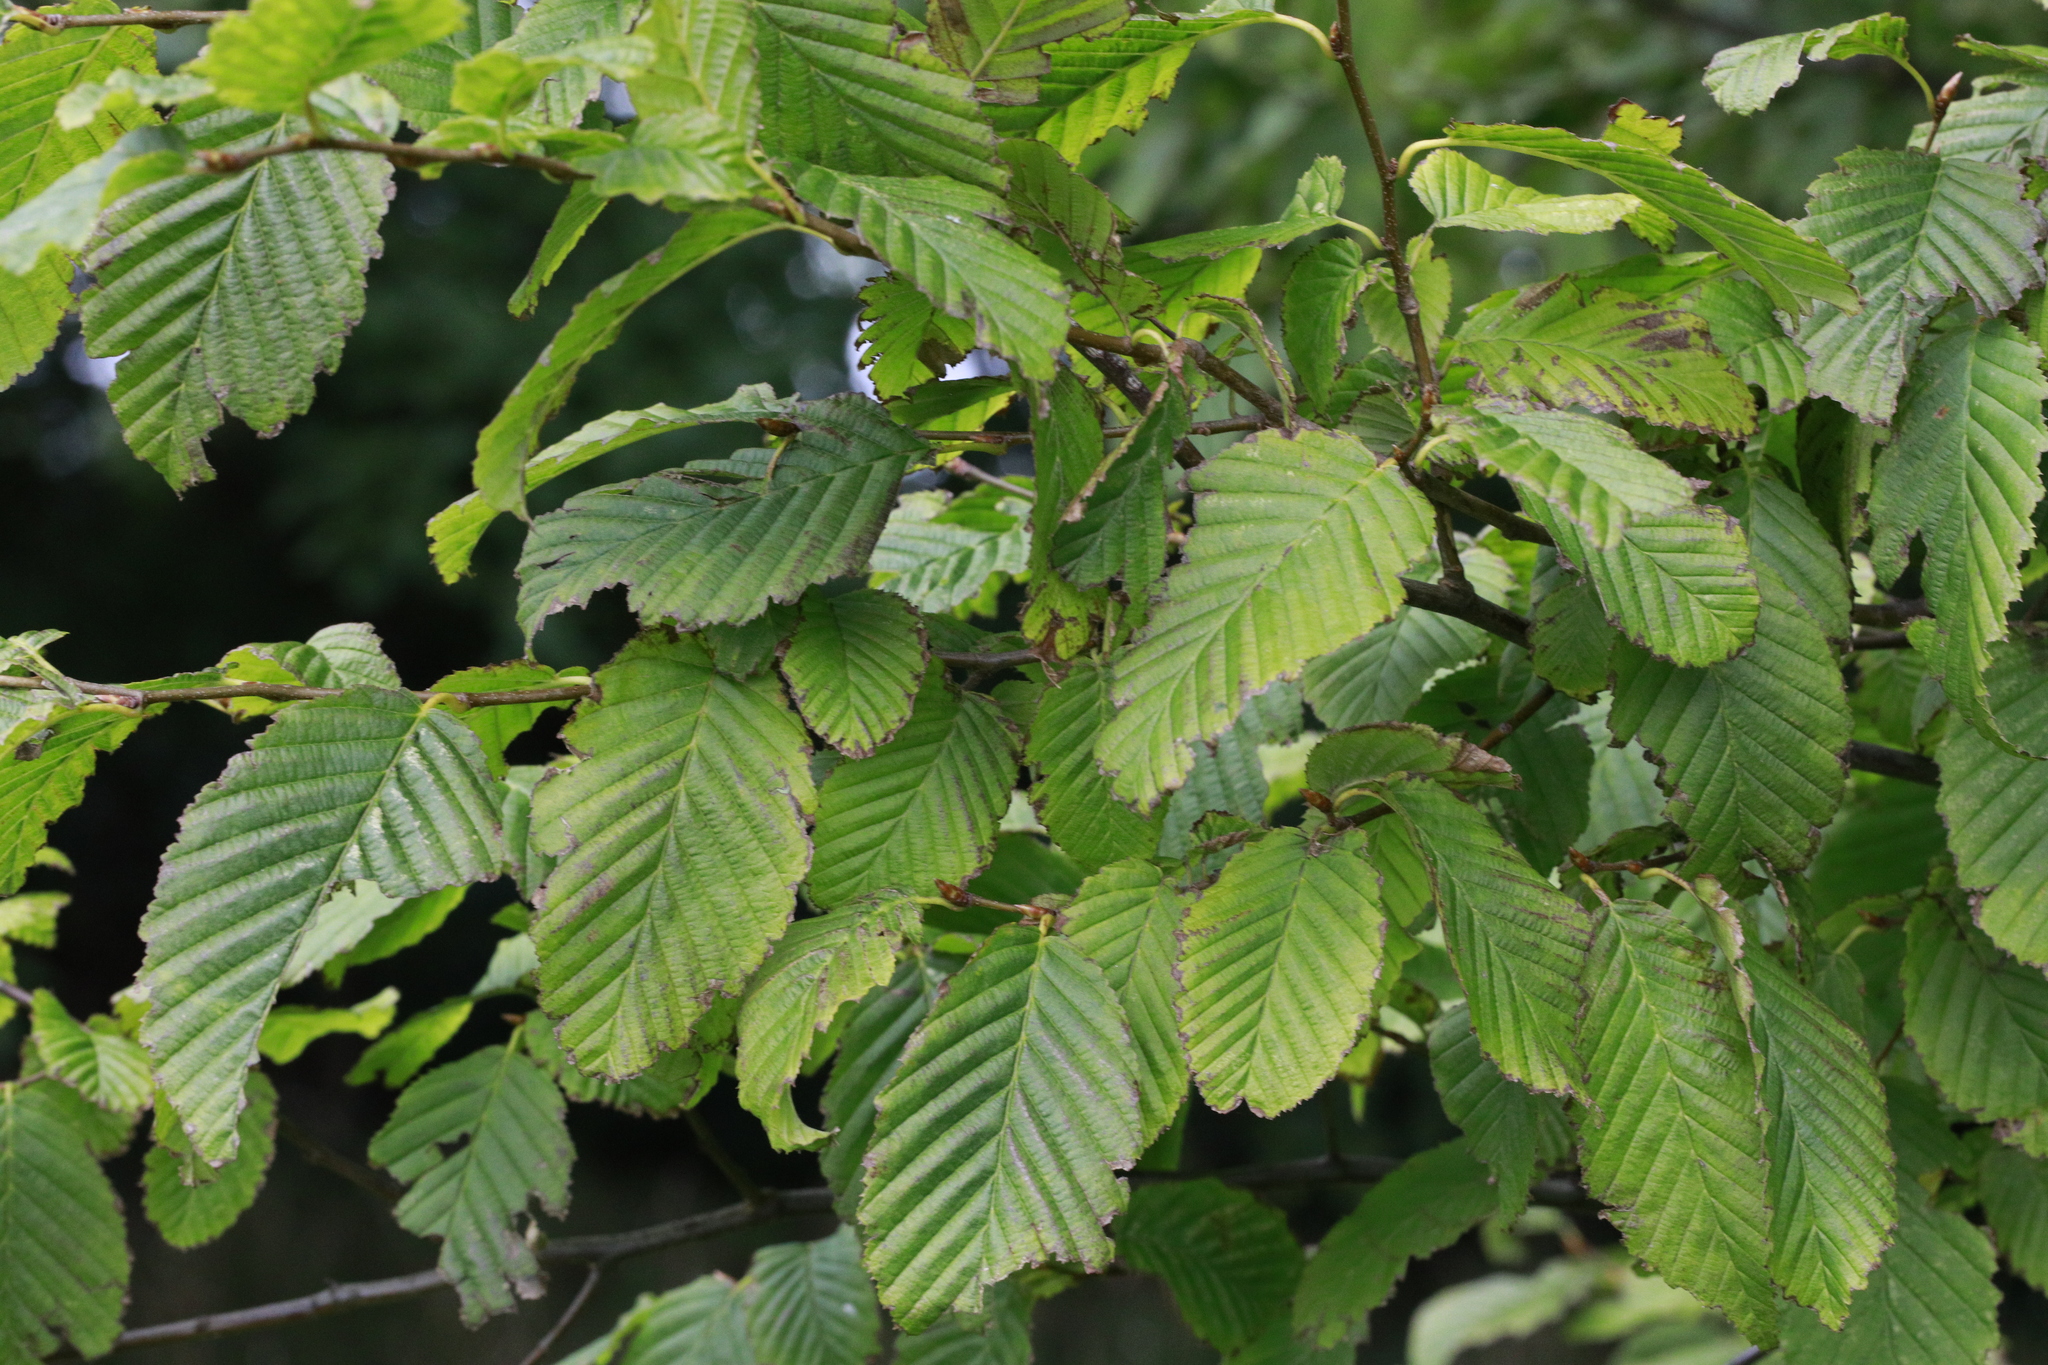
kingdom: Plantae
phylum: Tracheophyta
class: Magnoliopsida
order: Fagales
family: Betulaceae
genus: Carpinus
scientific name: Carpinus betulus
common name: Hornbeam
